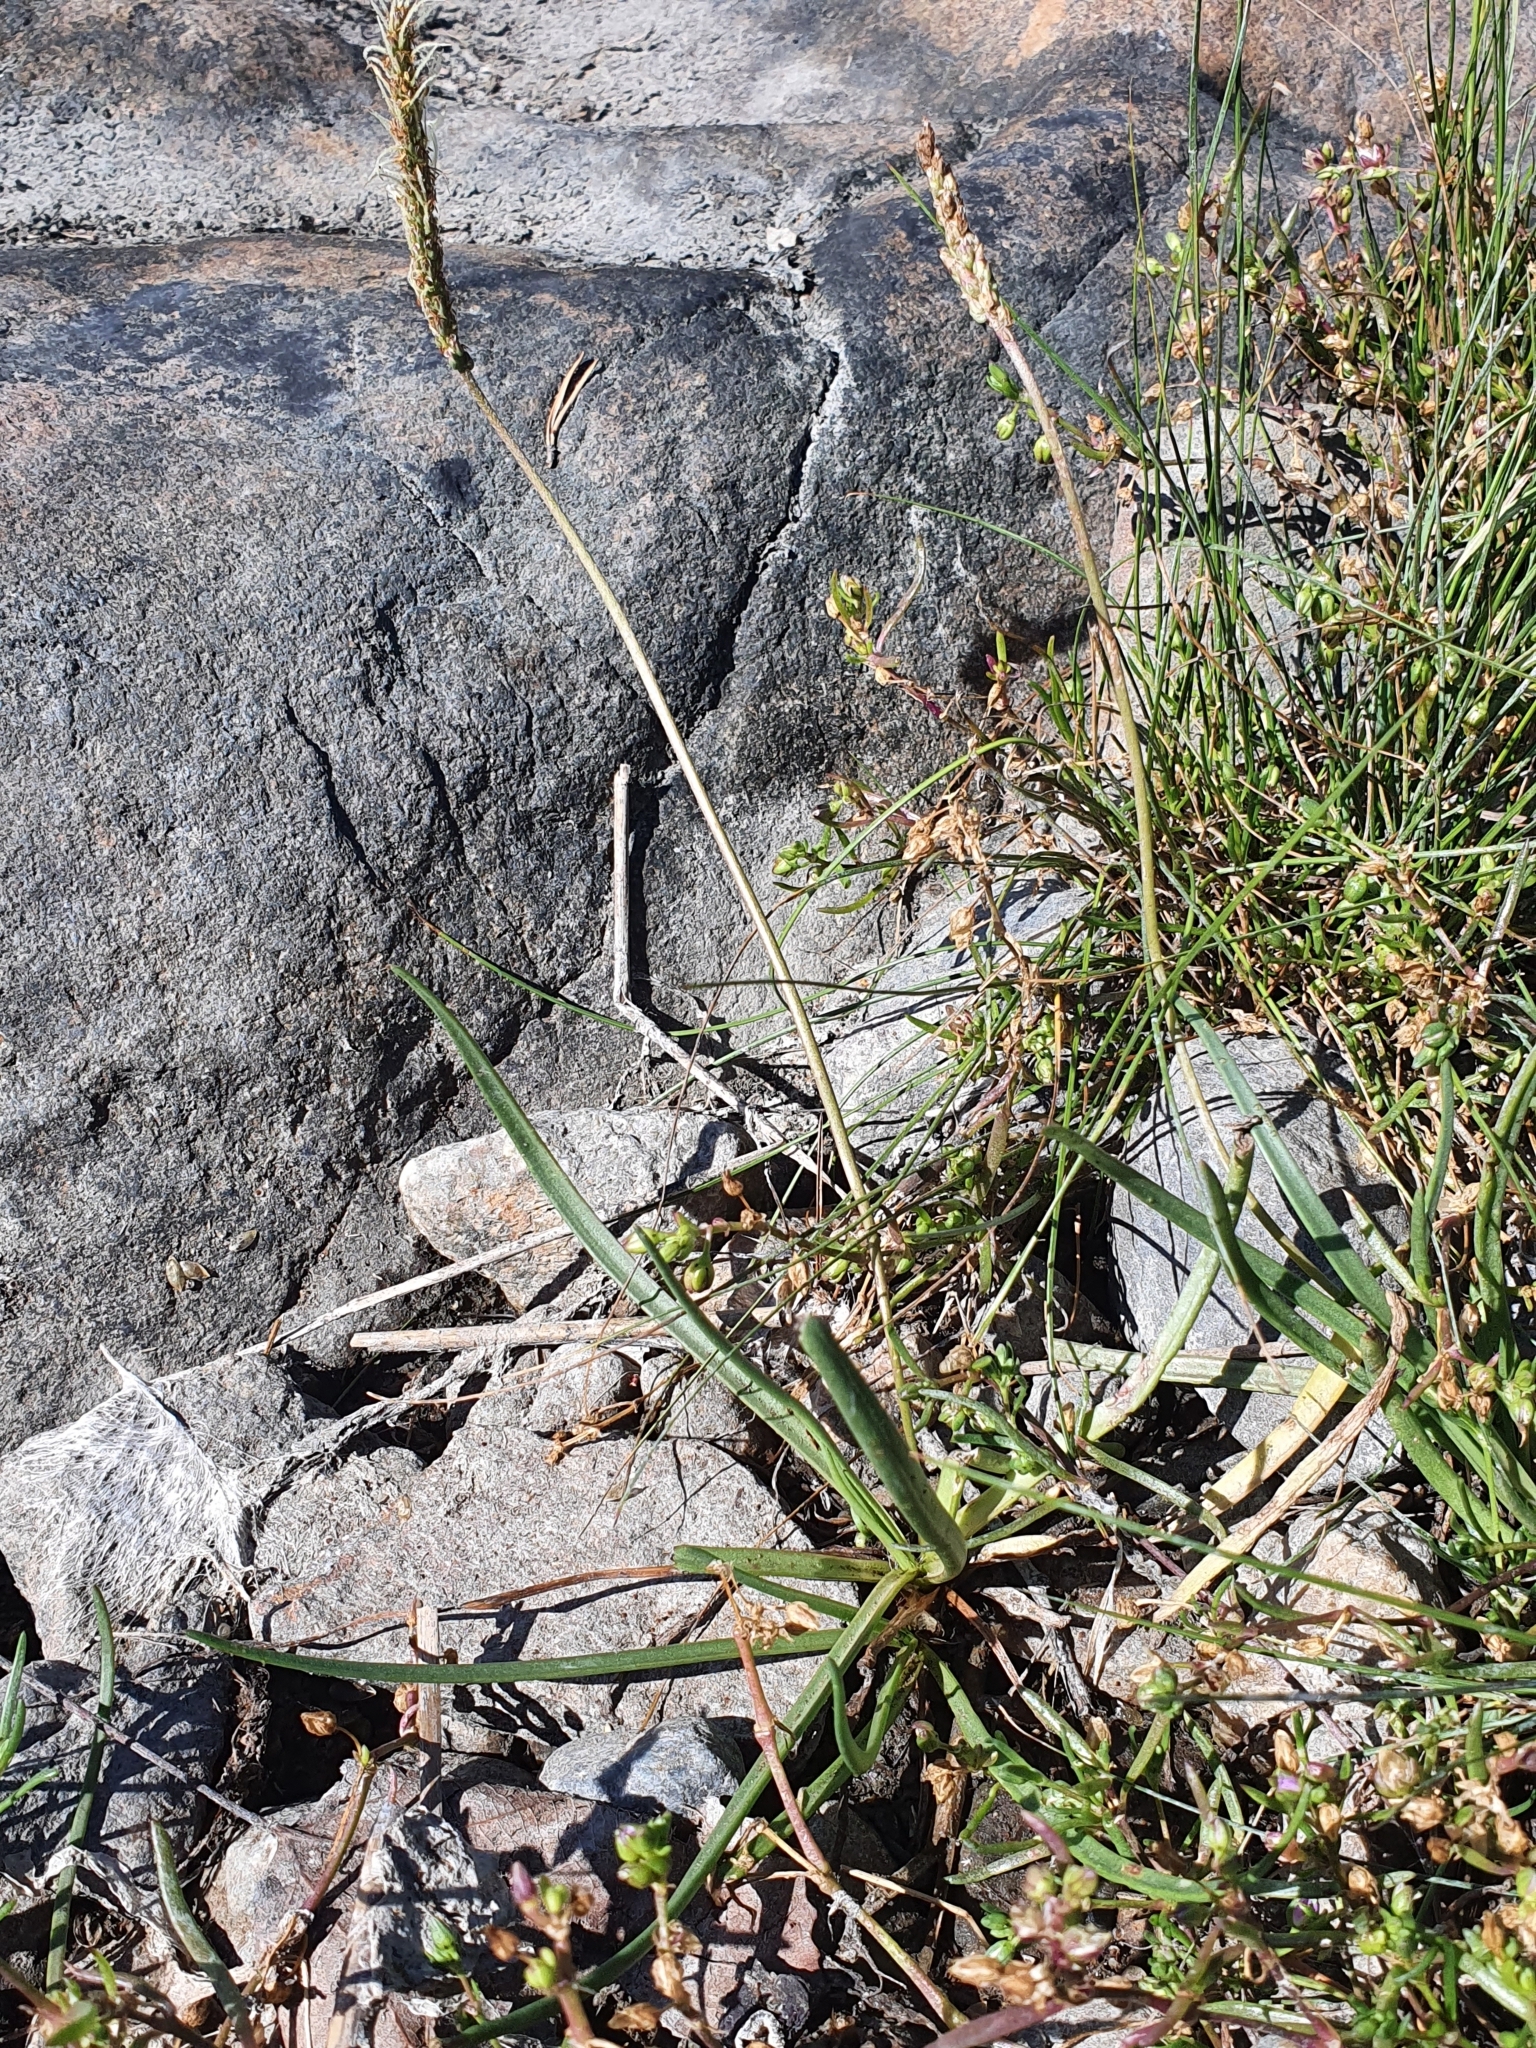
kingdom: Plantae
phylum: Tracheophyta
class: Magnoliopsida
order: Lamiales
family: Plantaginaceae
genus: Plantago
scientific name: Plantago maritima
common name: Sea plantain
